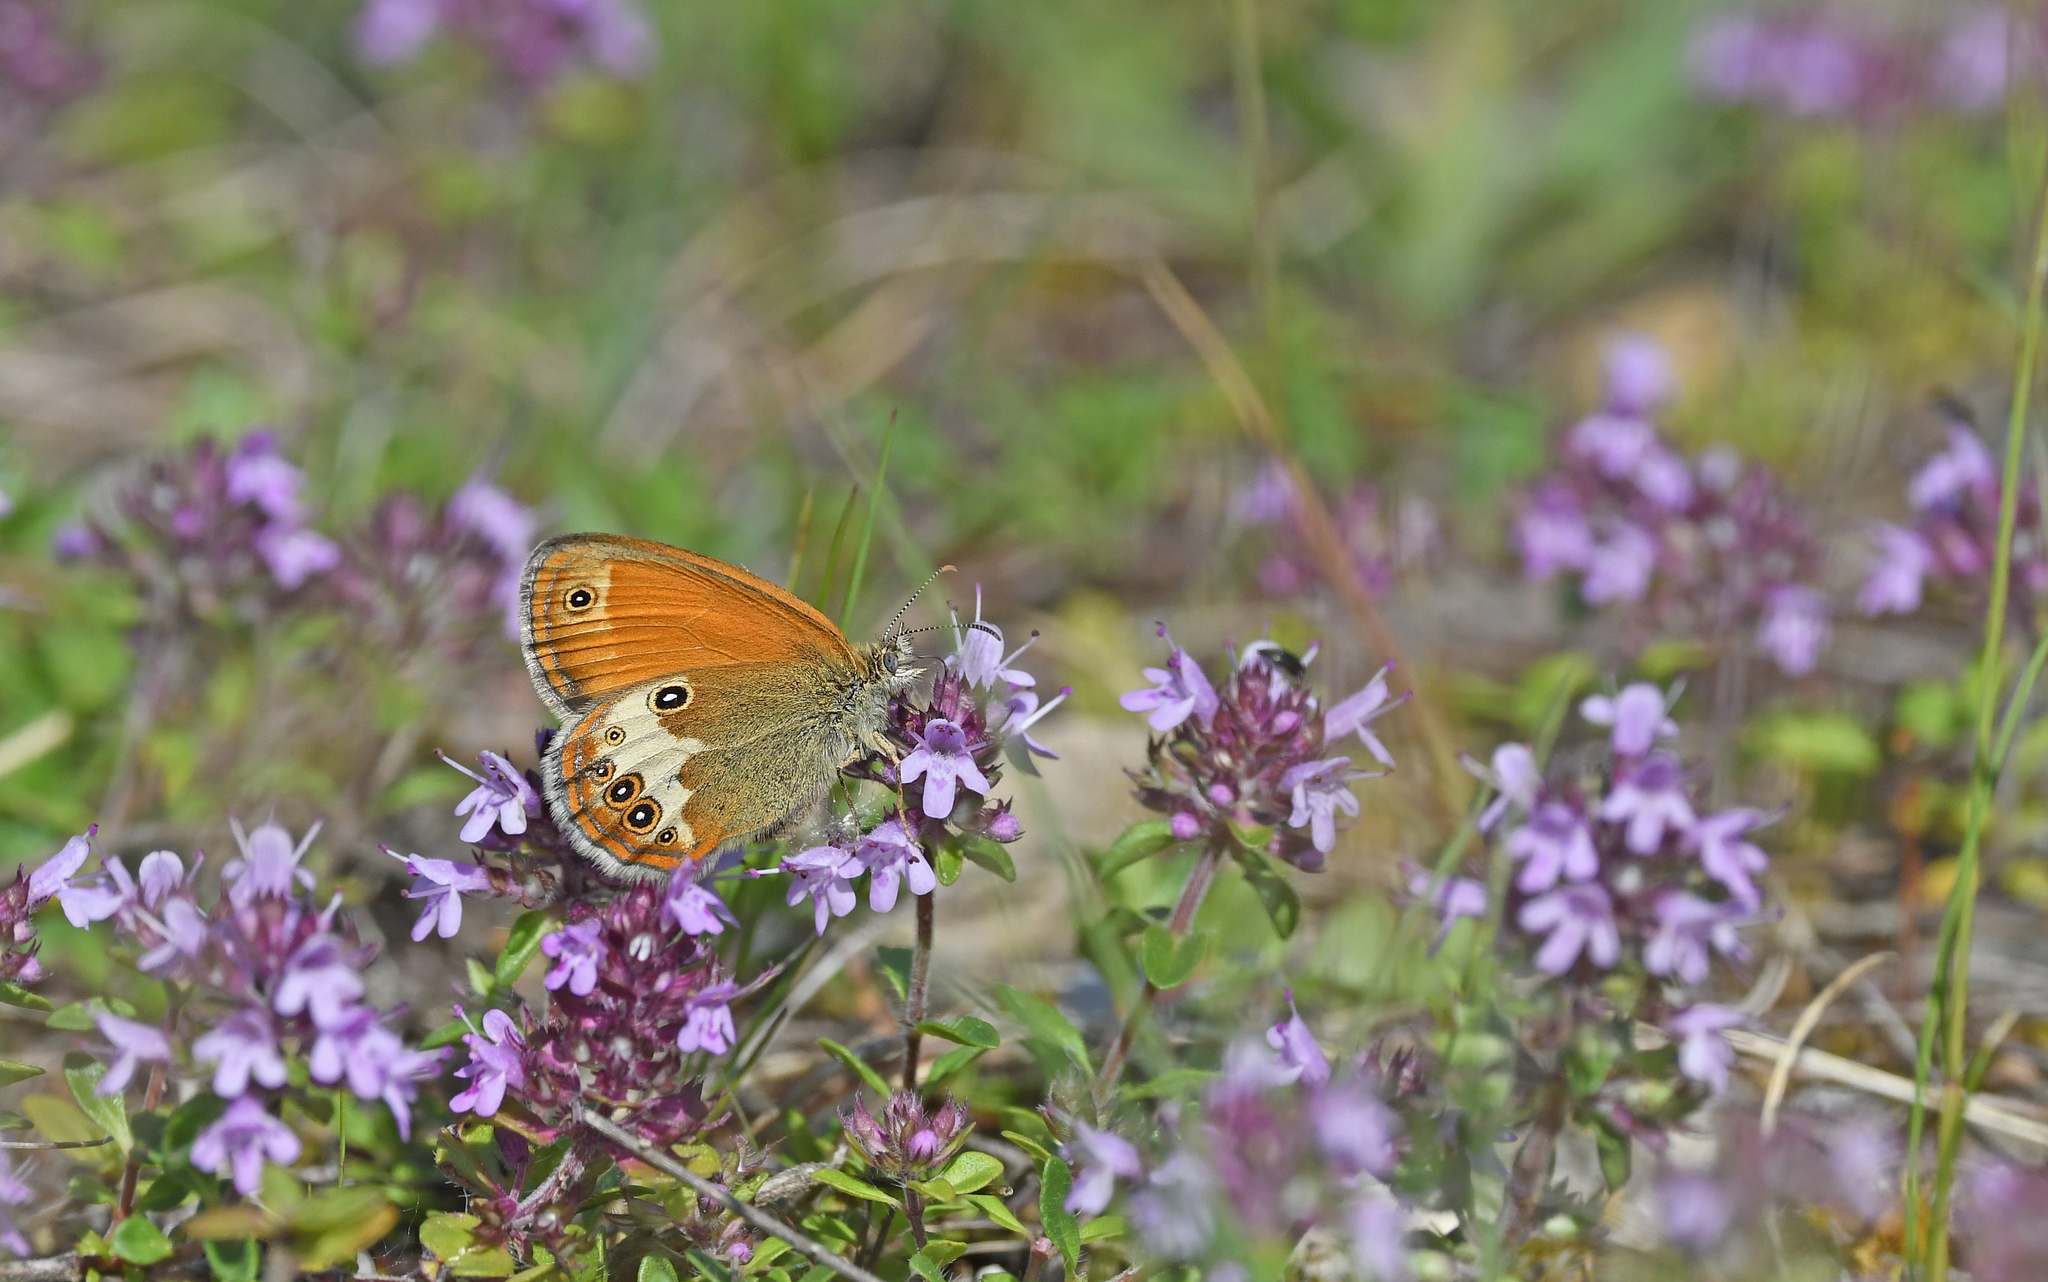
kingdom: Animalia
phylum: Arthropoda
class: Insecta
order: Lepidoptera
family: Nymphalidae
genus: Coenonympha
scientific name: Coenonympha arcania
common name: Pearly heath
